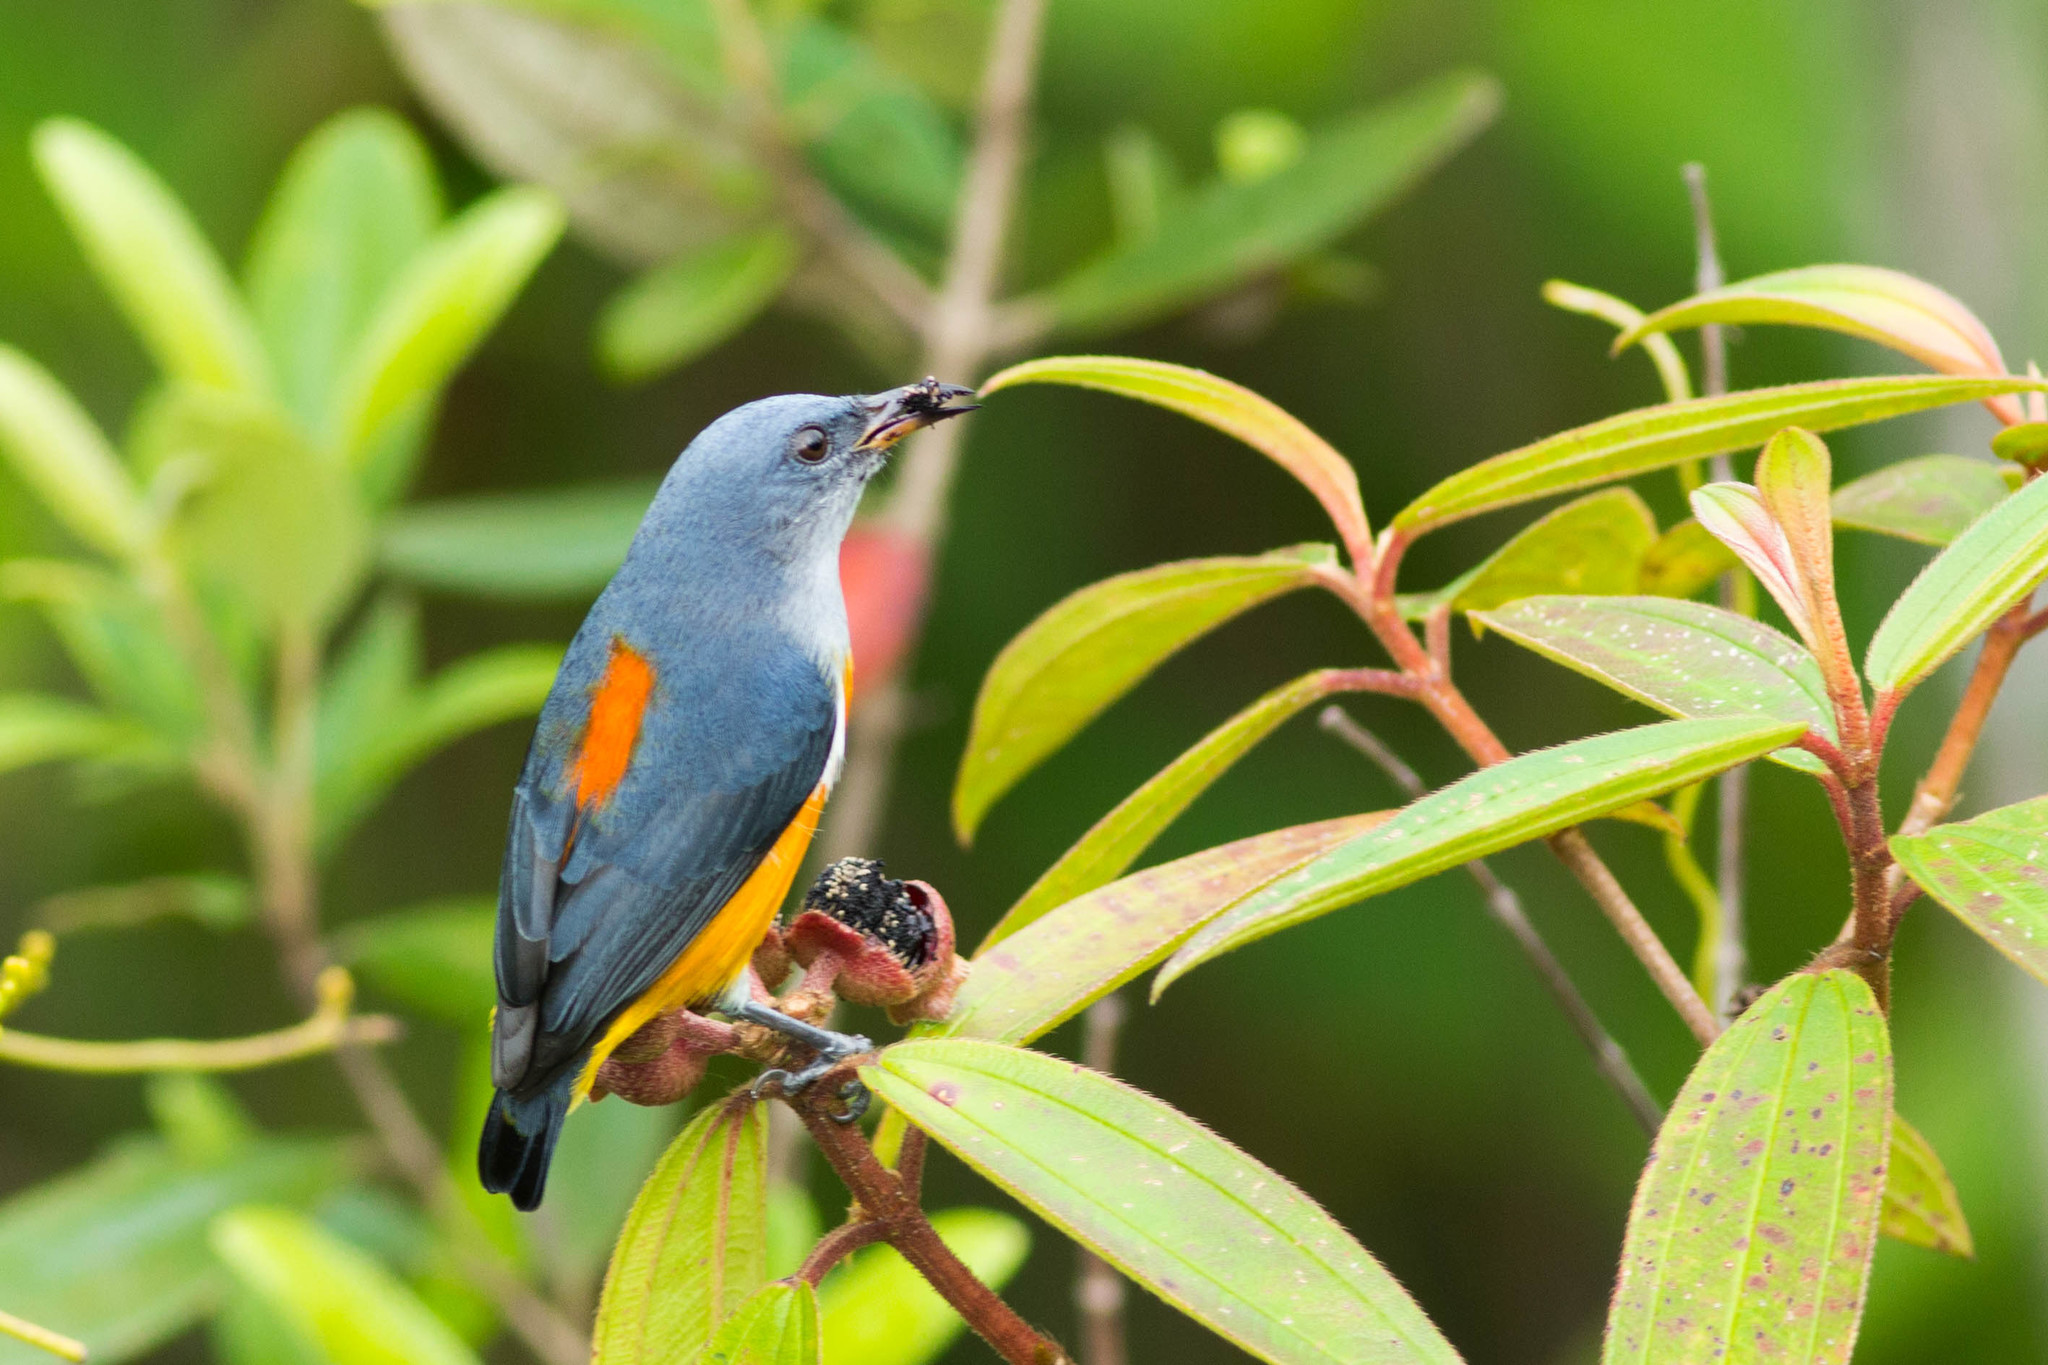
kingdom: Animalia
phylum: Chordata
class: Aves
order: Passeriformes
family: Dicaeidae
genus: Dicaeum
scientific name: Dicaeum trigonostigma
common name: Orange-bellied flowerpecker
